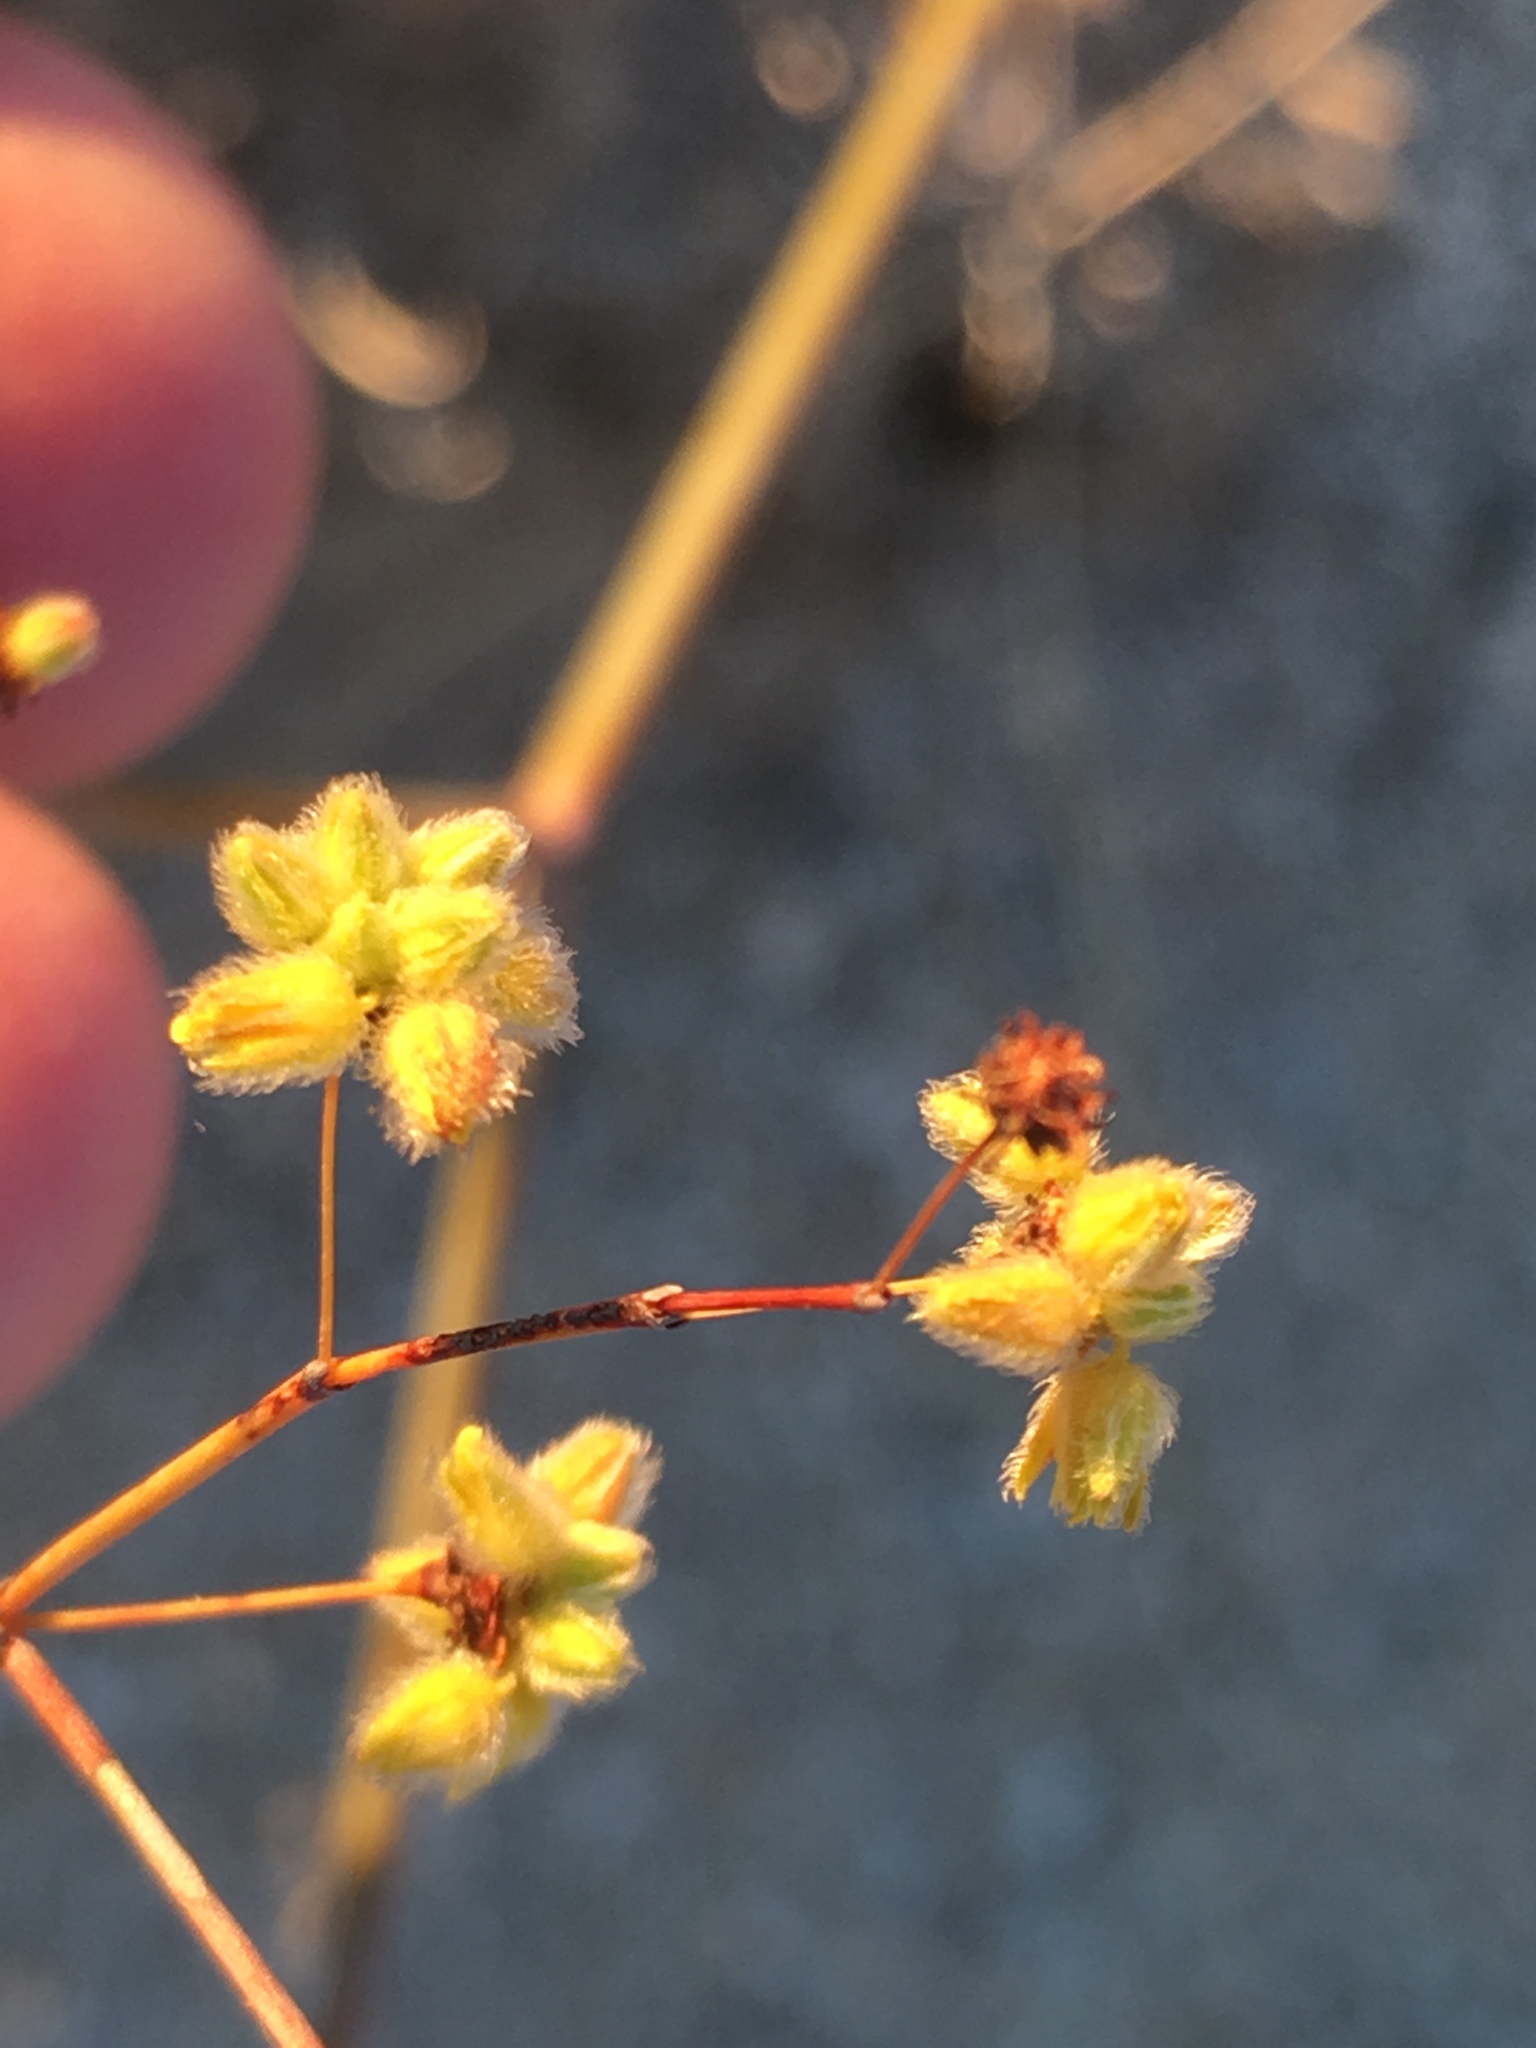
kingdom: Plantae
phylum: Tracheophyta
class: Magnoliopsida
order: Caryophyllales
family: Polygonaceae
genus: Eriogonum
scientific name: Eriogonum inflatum
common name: Desert trumpet
